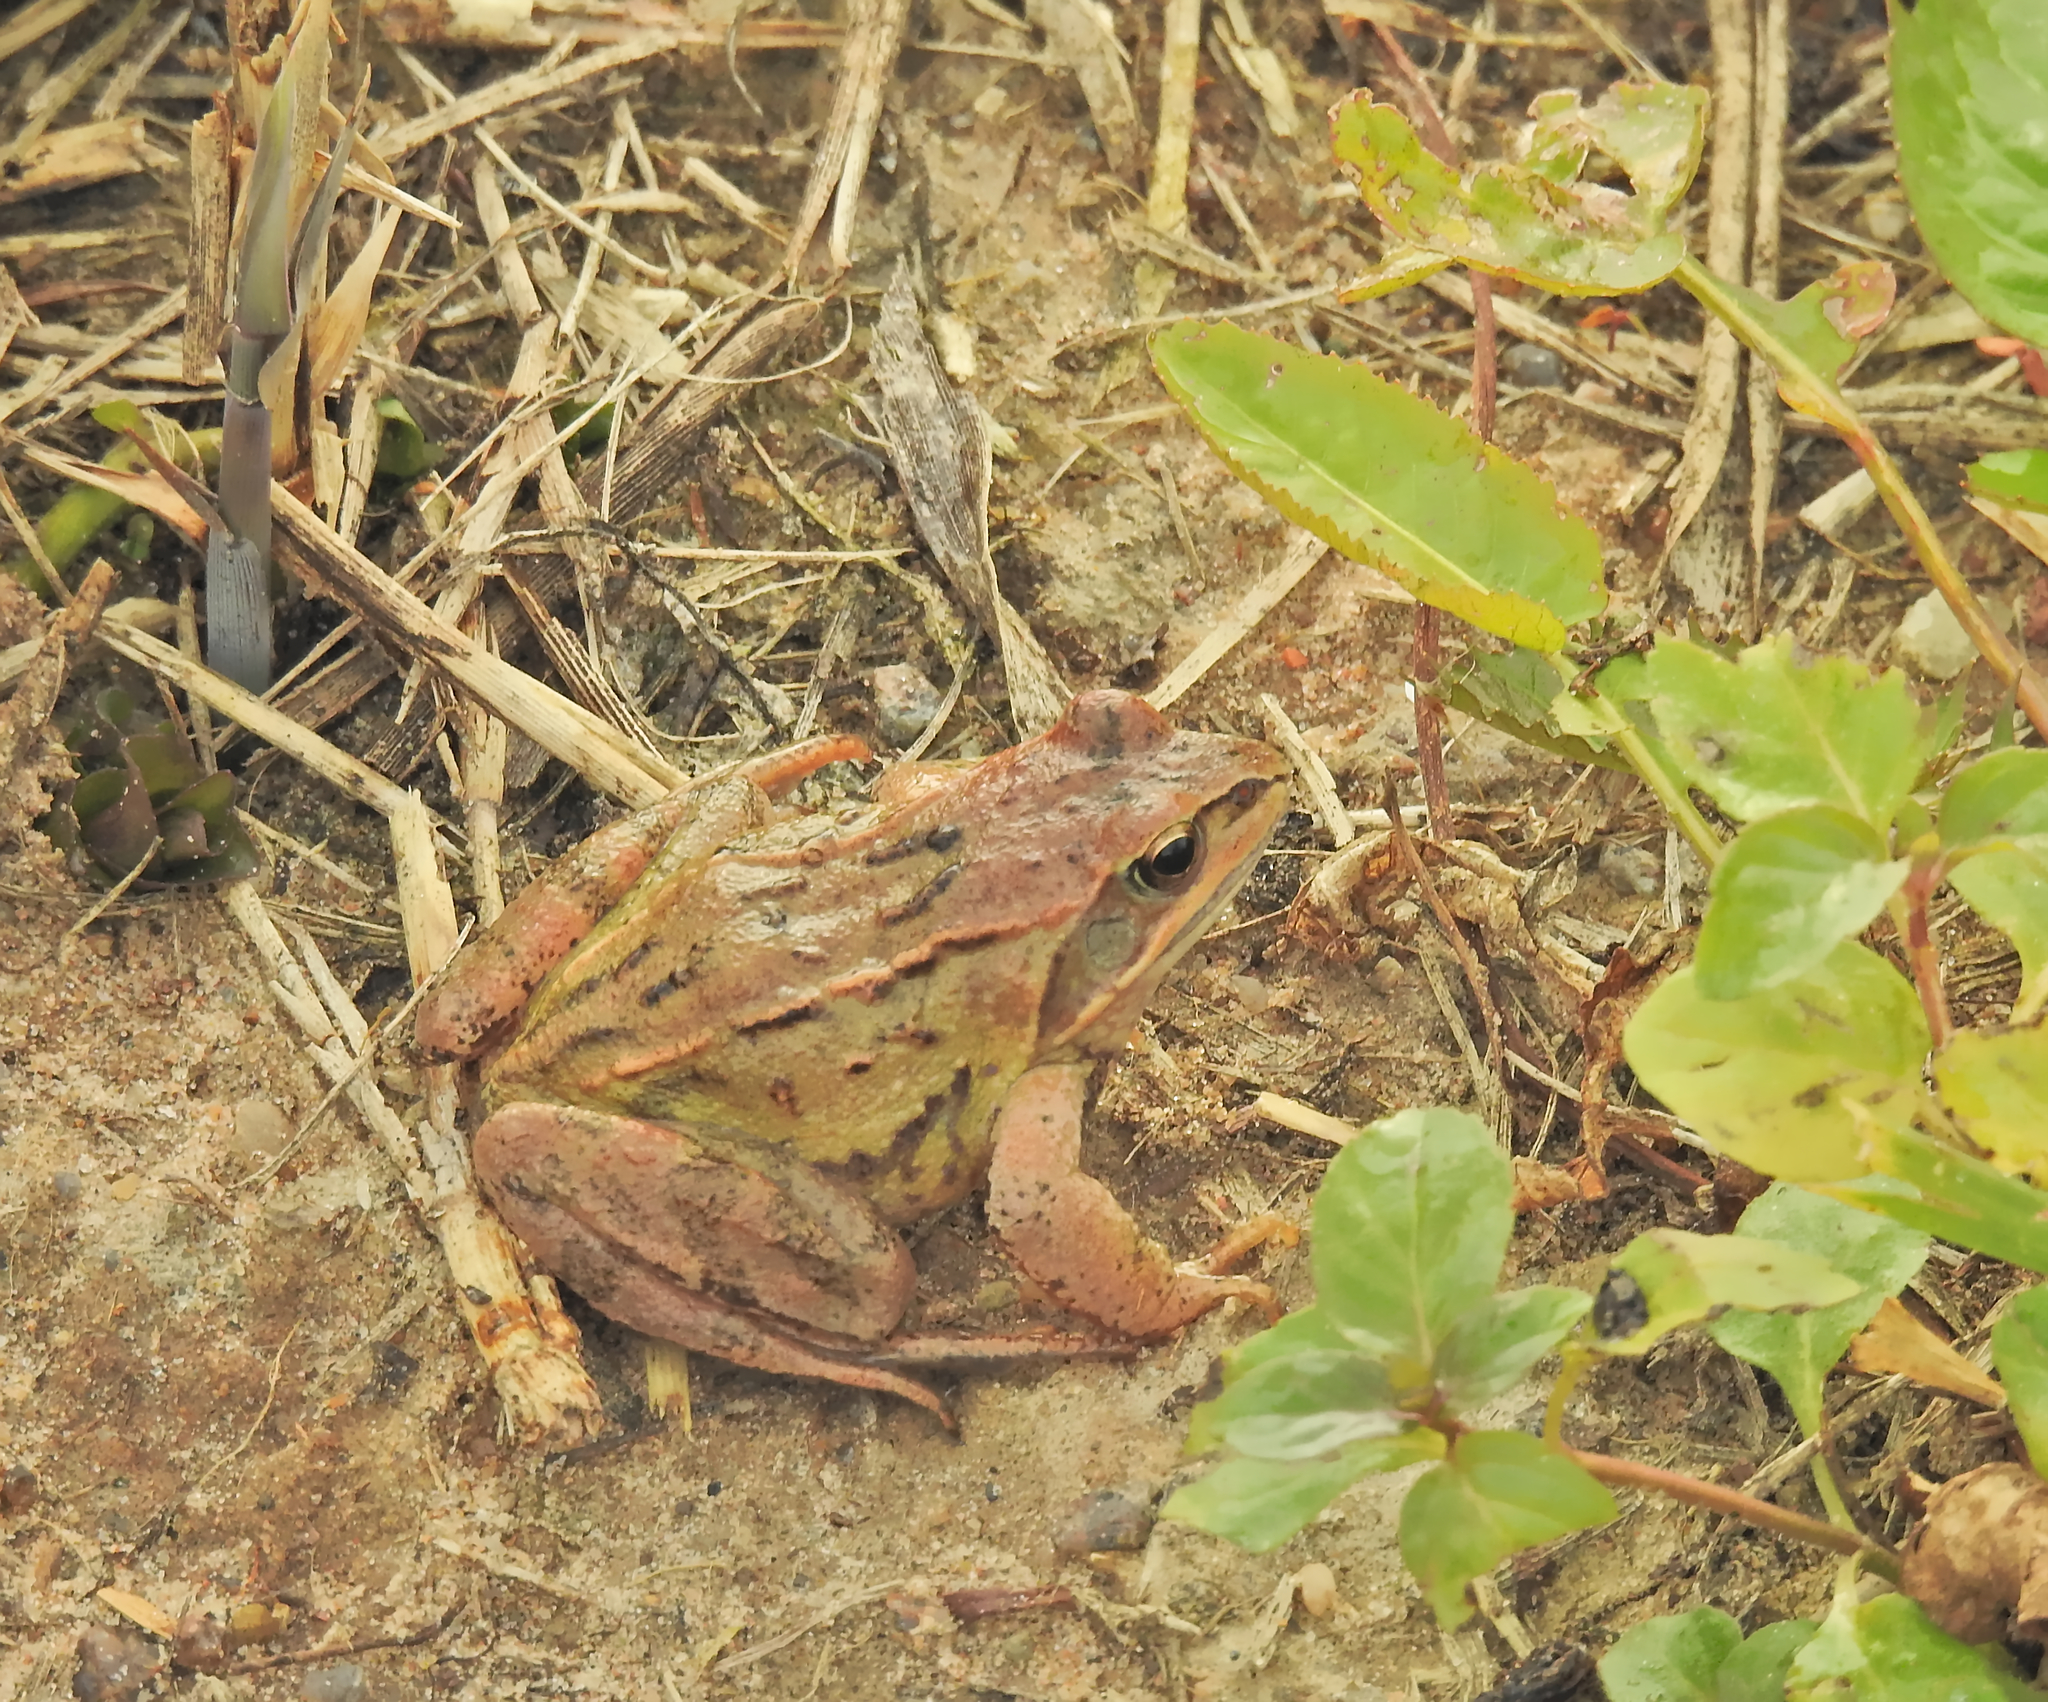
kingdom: Animalia
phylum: Chordata
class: Amphibia
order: Anura
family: Ranidae
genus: Rana
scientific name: Rana arvalis
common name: Moor frog
